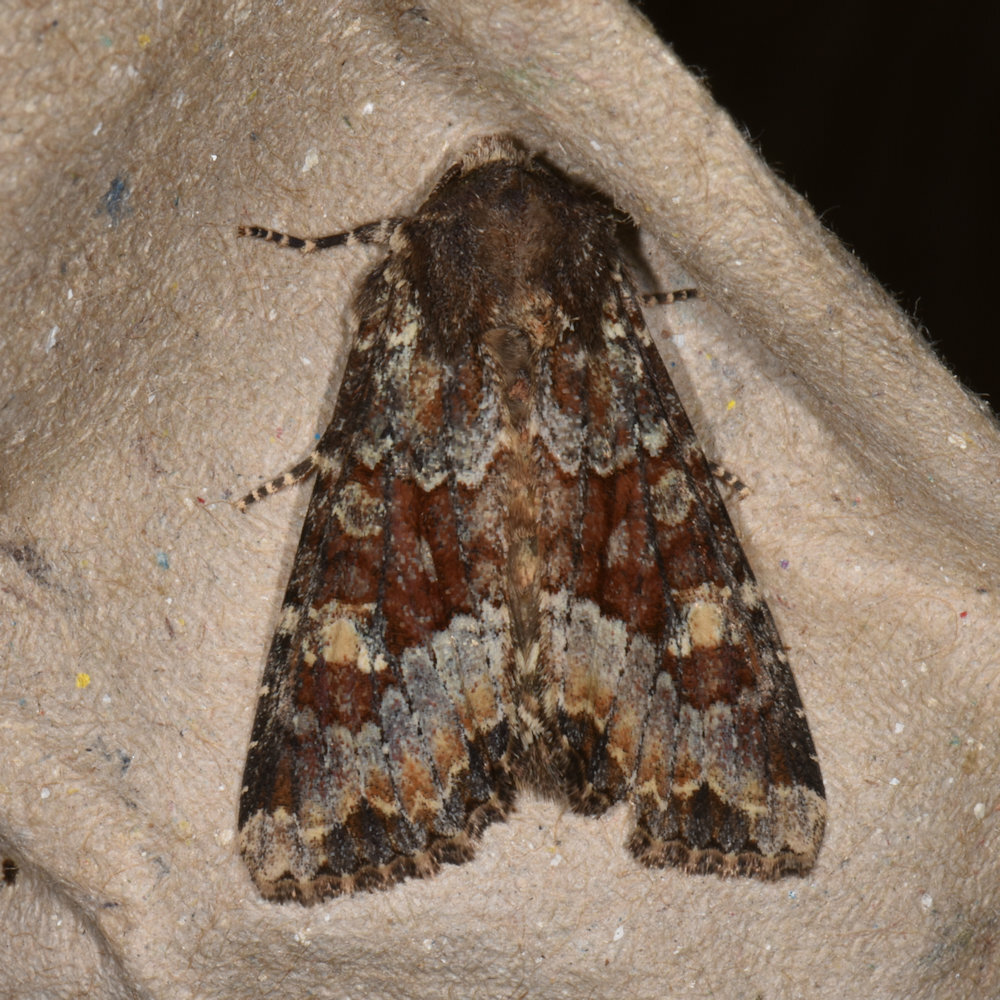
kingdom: Animalia
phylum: Arthropoda
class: Insecta
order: Lepidoptera
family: Noctuidae
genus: Apamea
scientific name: Apamea amputatrix
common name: Yellow-headed cutworm moth
